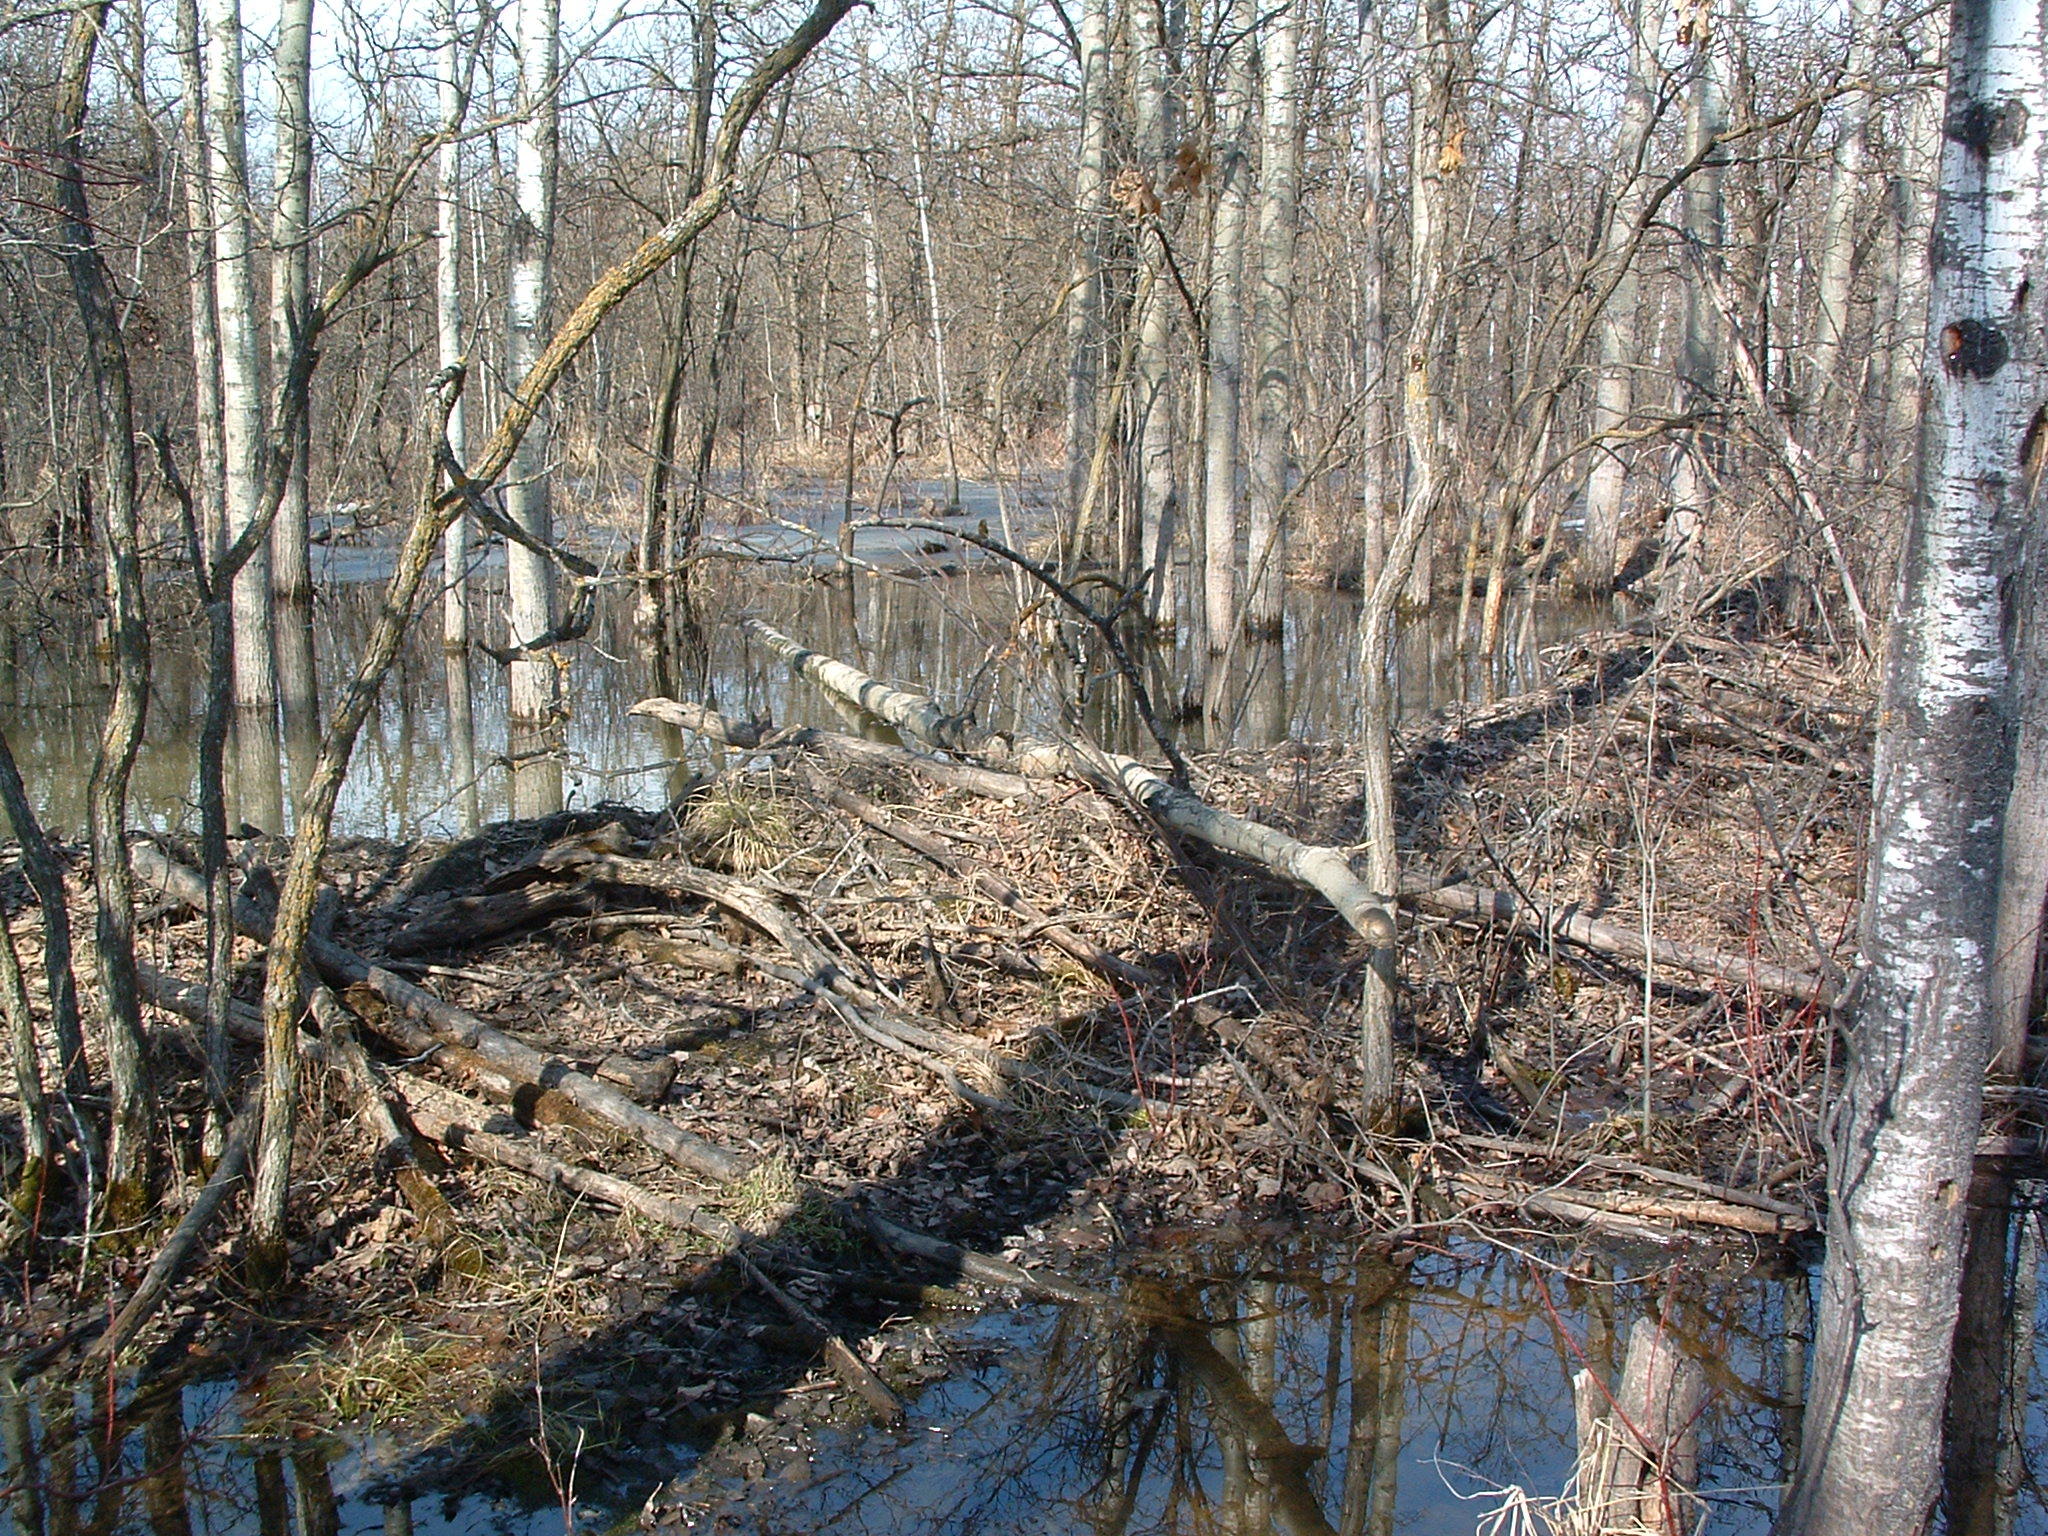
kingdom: Animalia
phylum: Chordata
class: Mammalia
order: Rodentia
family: Castoridae
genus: Castor
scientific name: Castor canadensis
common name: American beaver
